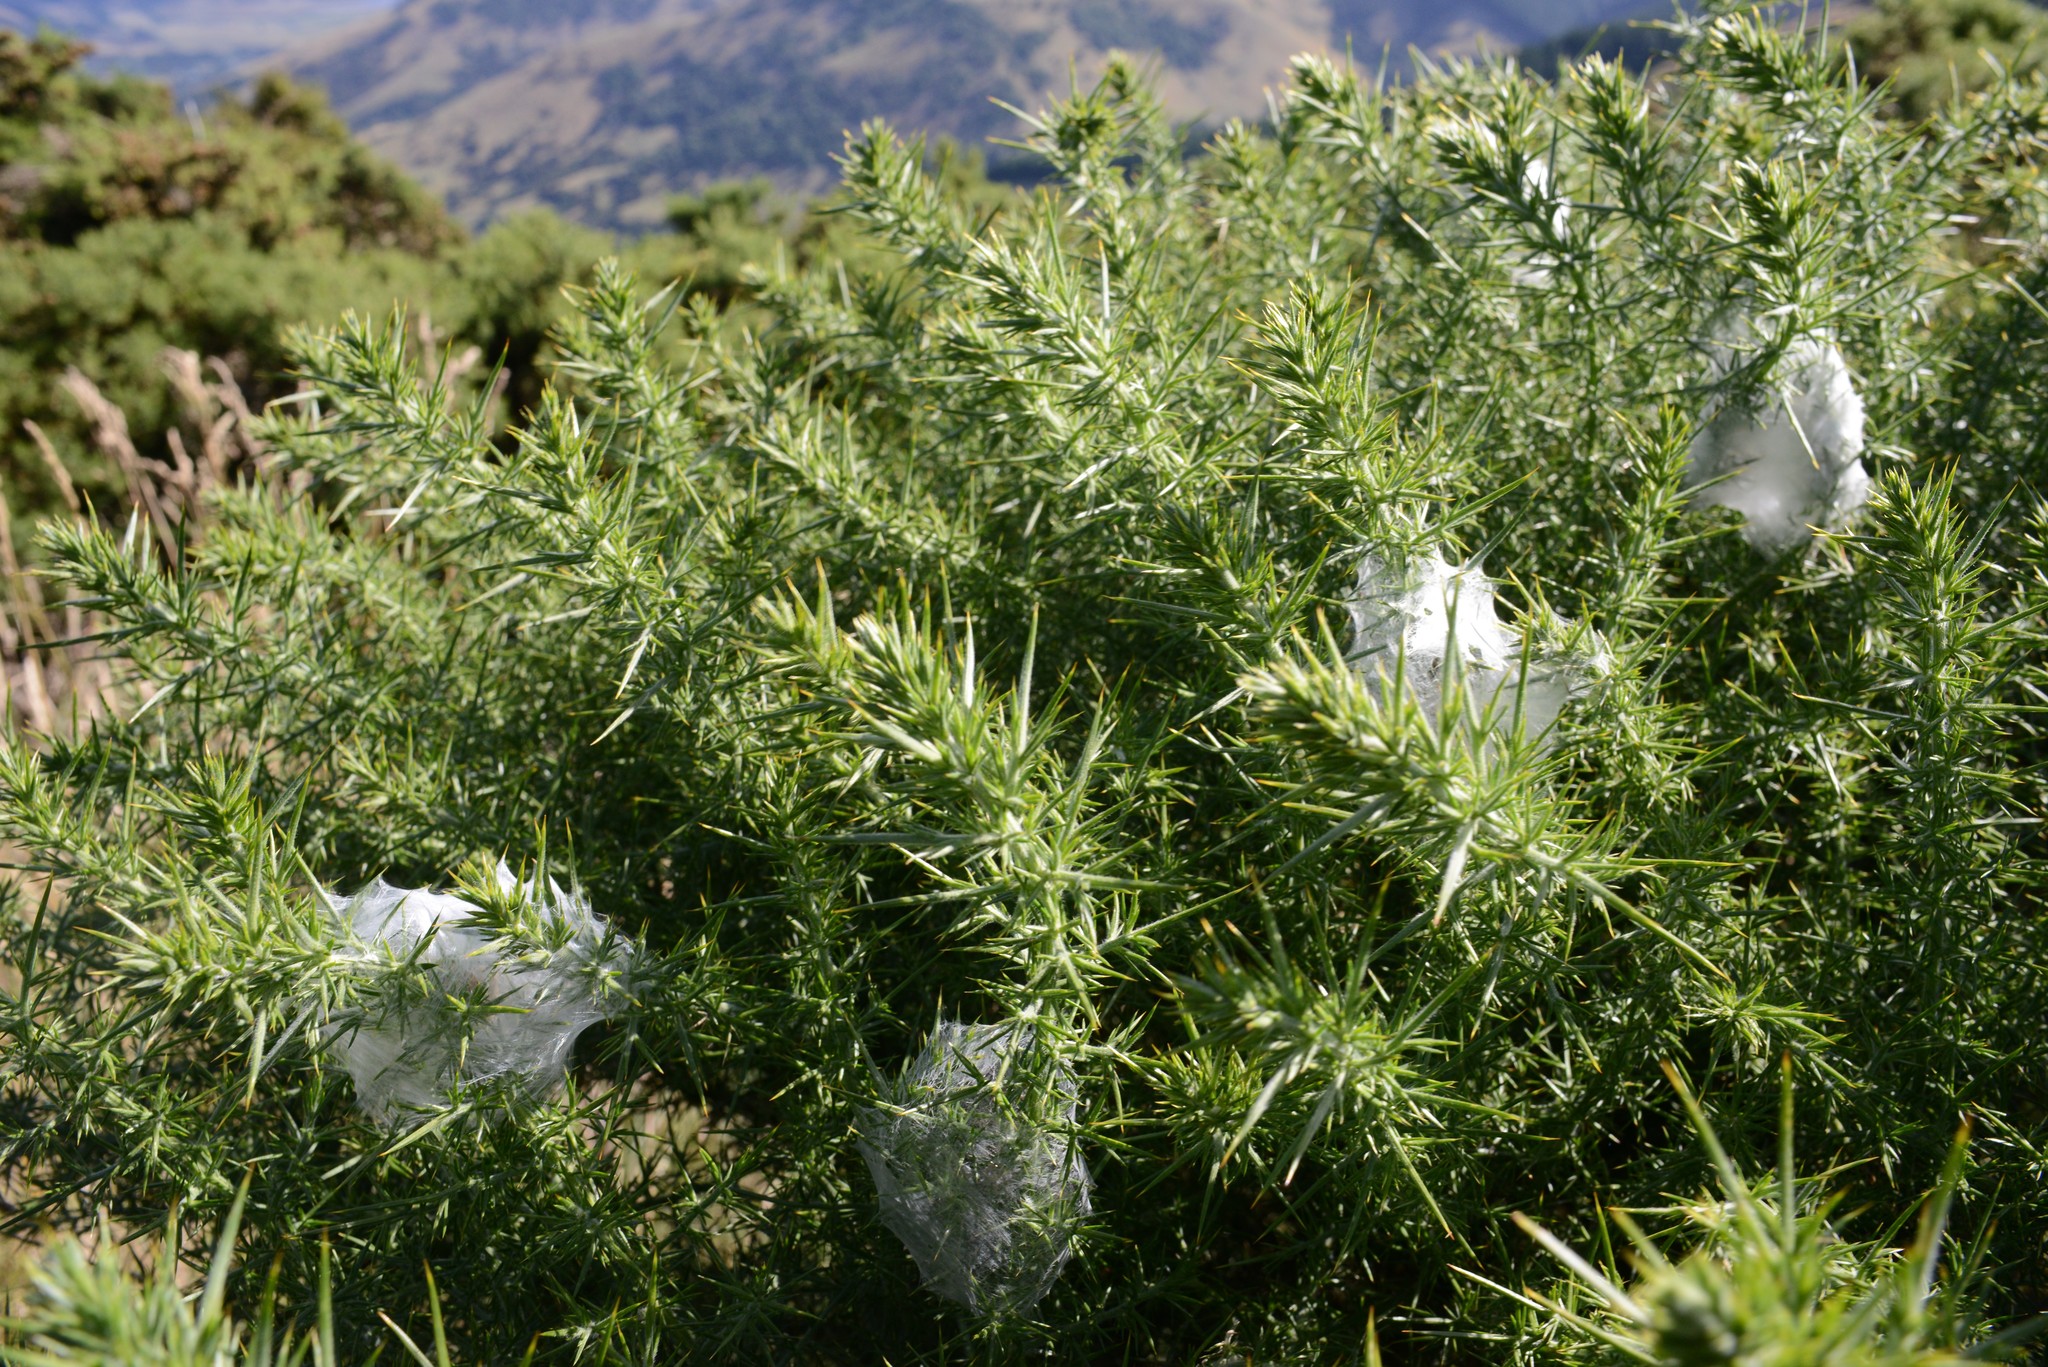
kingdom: Plantae
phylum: Tracheophyta
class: Magnoliopsida
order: Fabales
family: Fabaceae
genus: Ulex
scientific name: Ulex europaeus
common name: Common gorse
